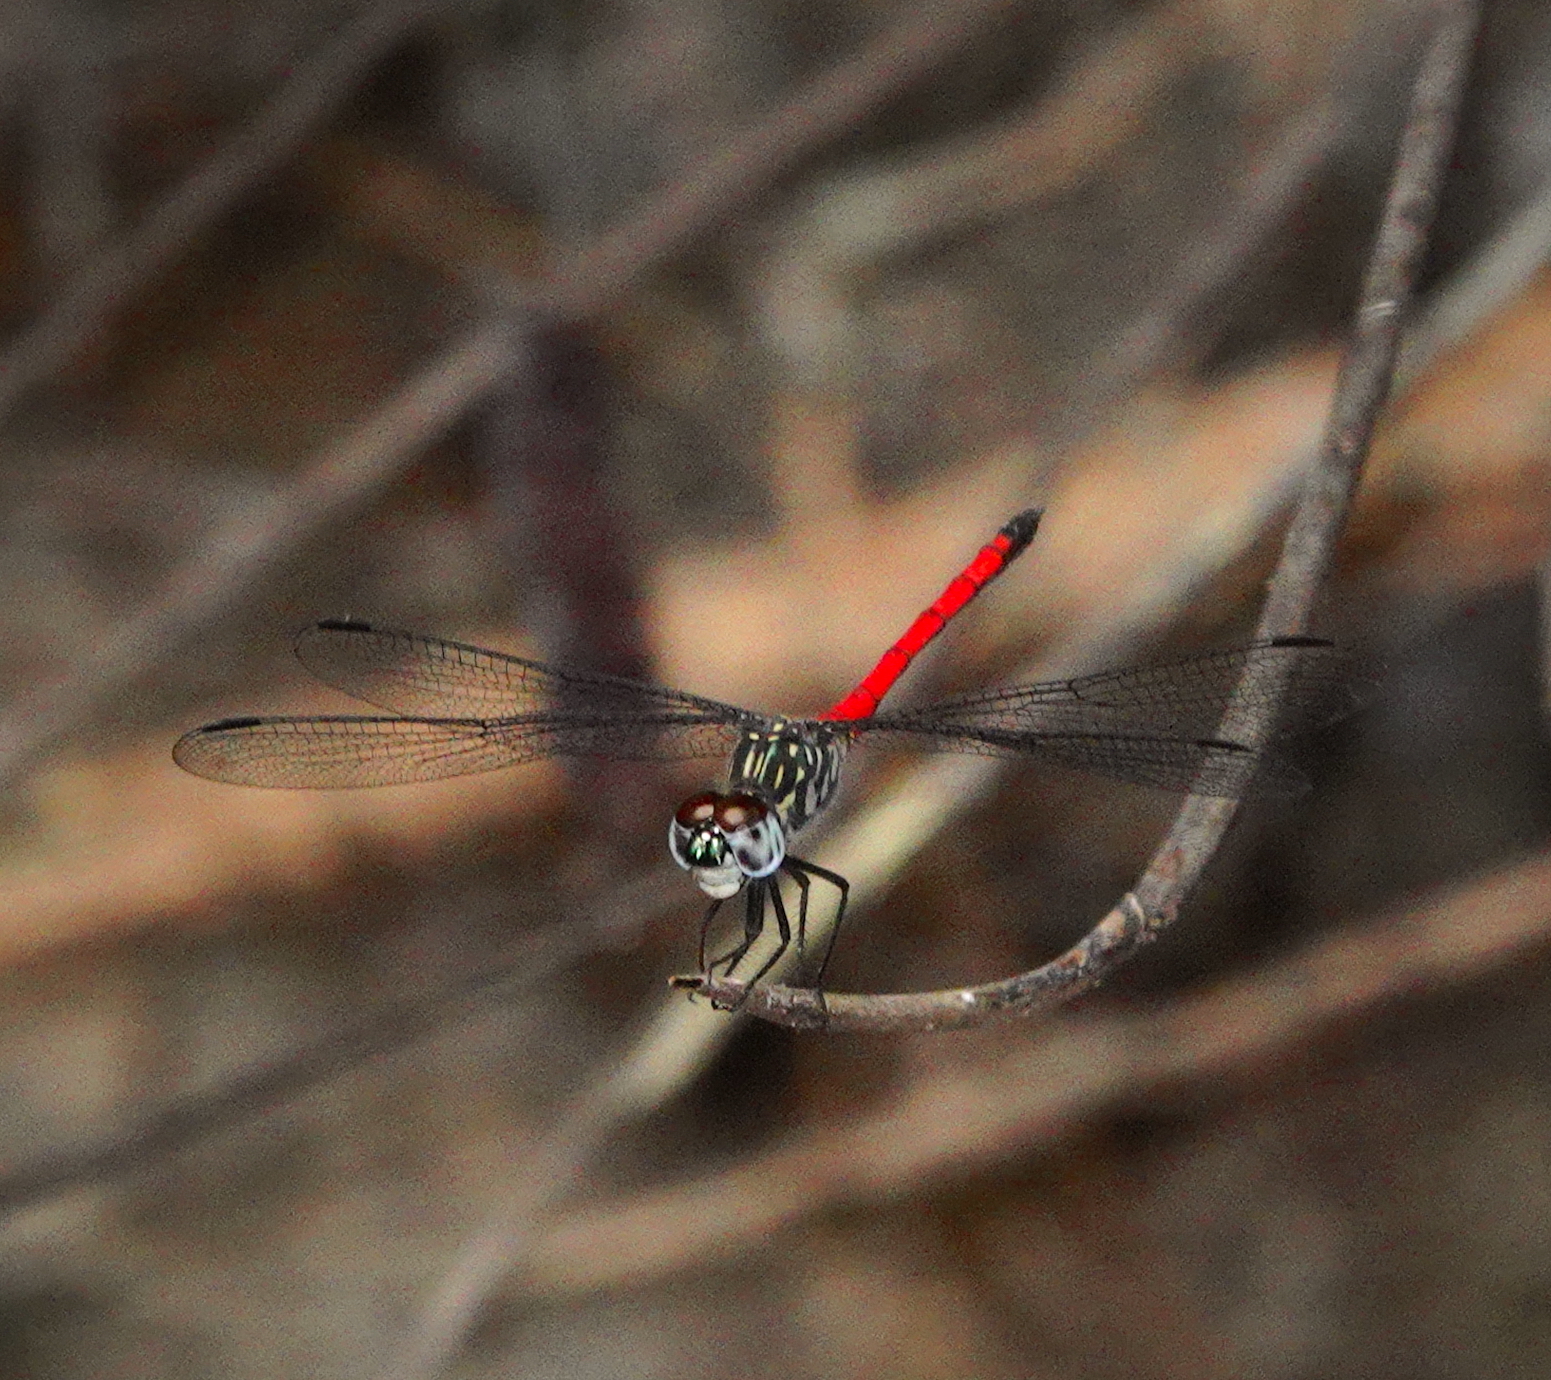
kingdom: Animalia
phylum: Arthropoda
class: Insecta
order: Odonata
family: Libellulidae
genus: Agrionoptera
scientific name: Agrionoptera insignis
